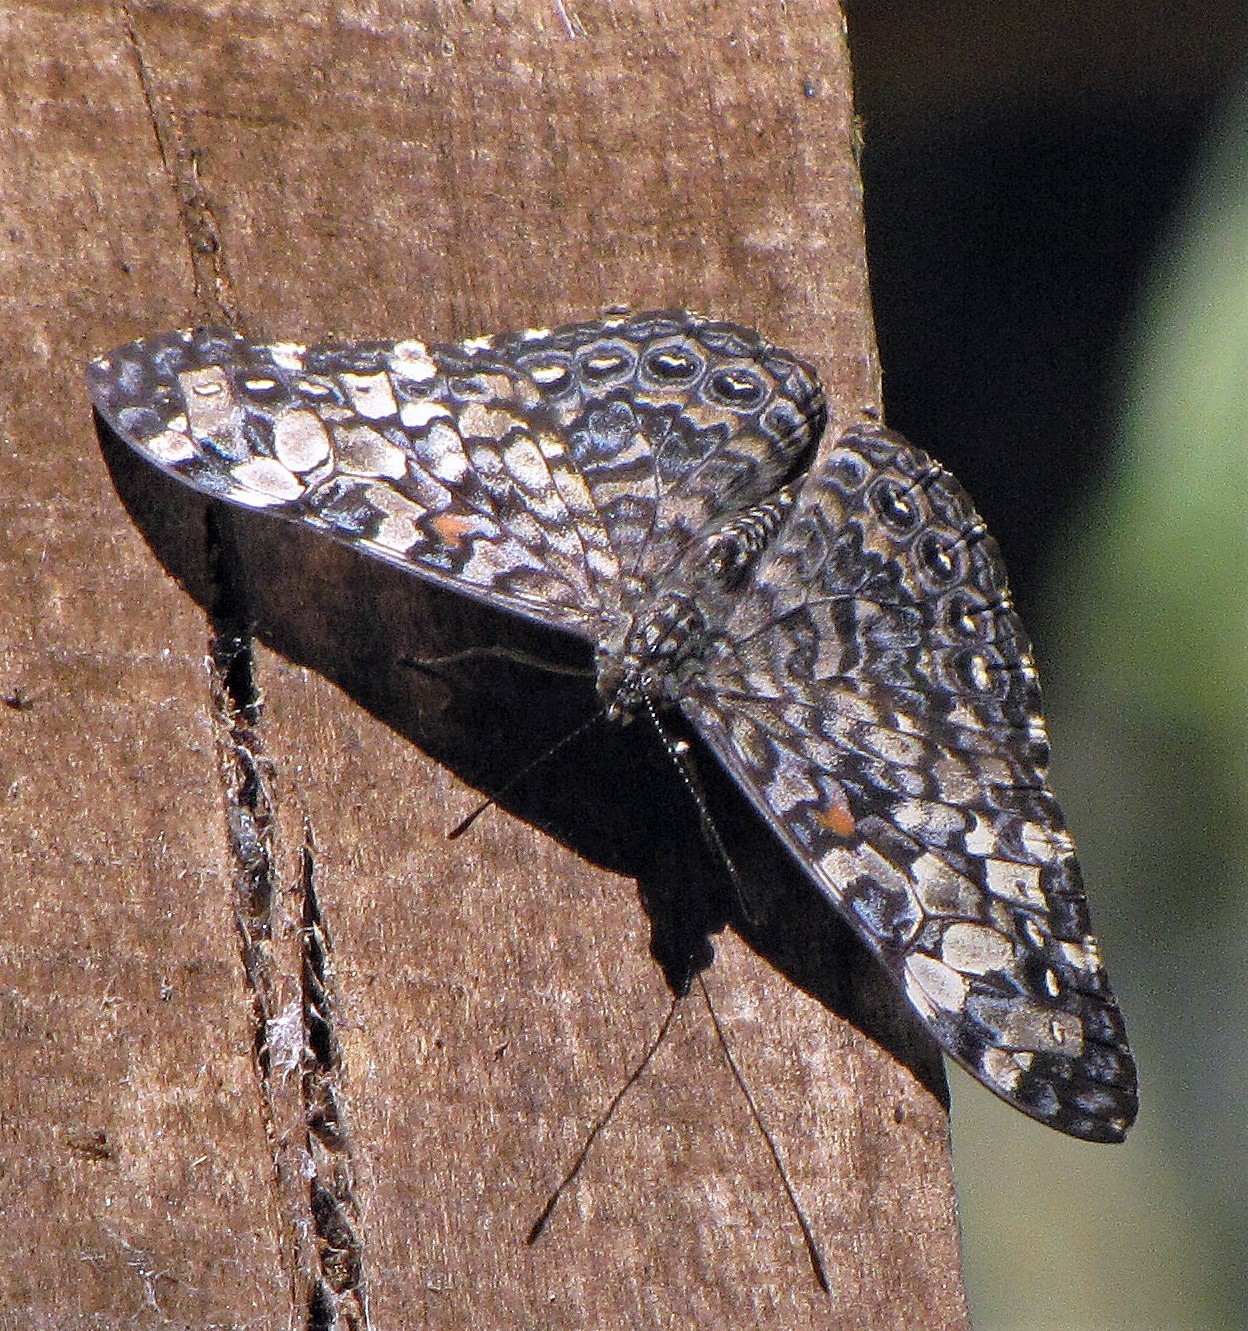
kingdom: Animalia
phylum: Arthropoda
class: Insecta
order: Lepidoptera
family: Nymphalidae
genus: Hamadryas
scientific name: Hamadryas epinome
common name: Epinome cracker
